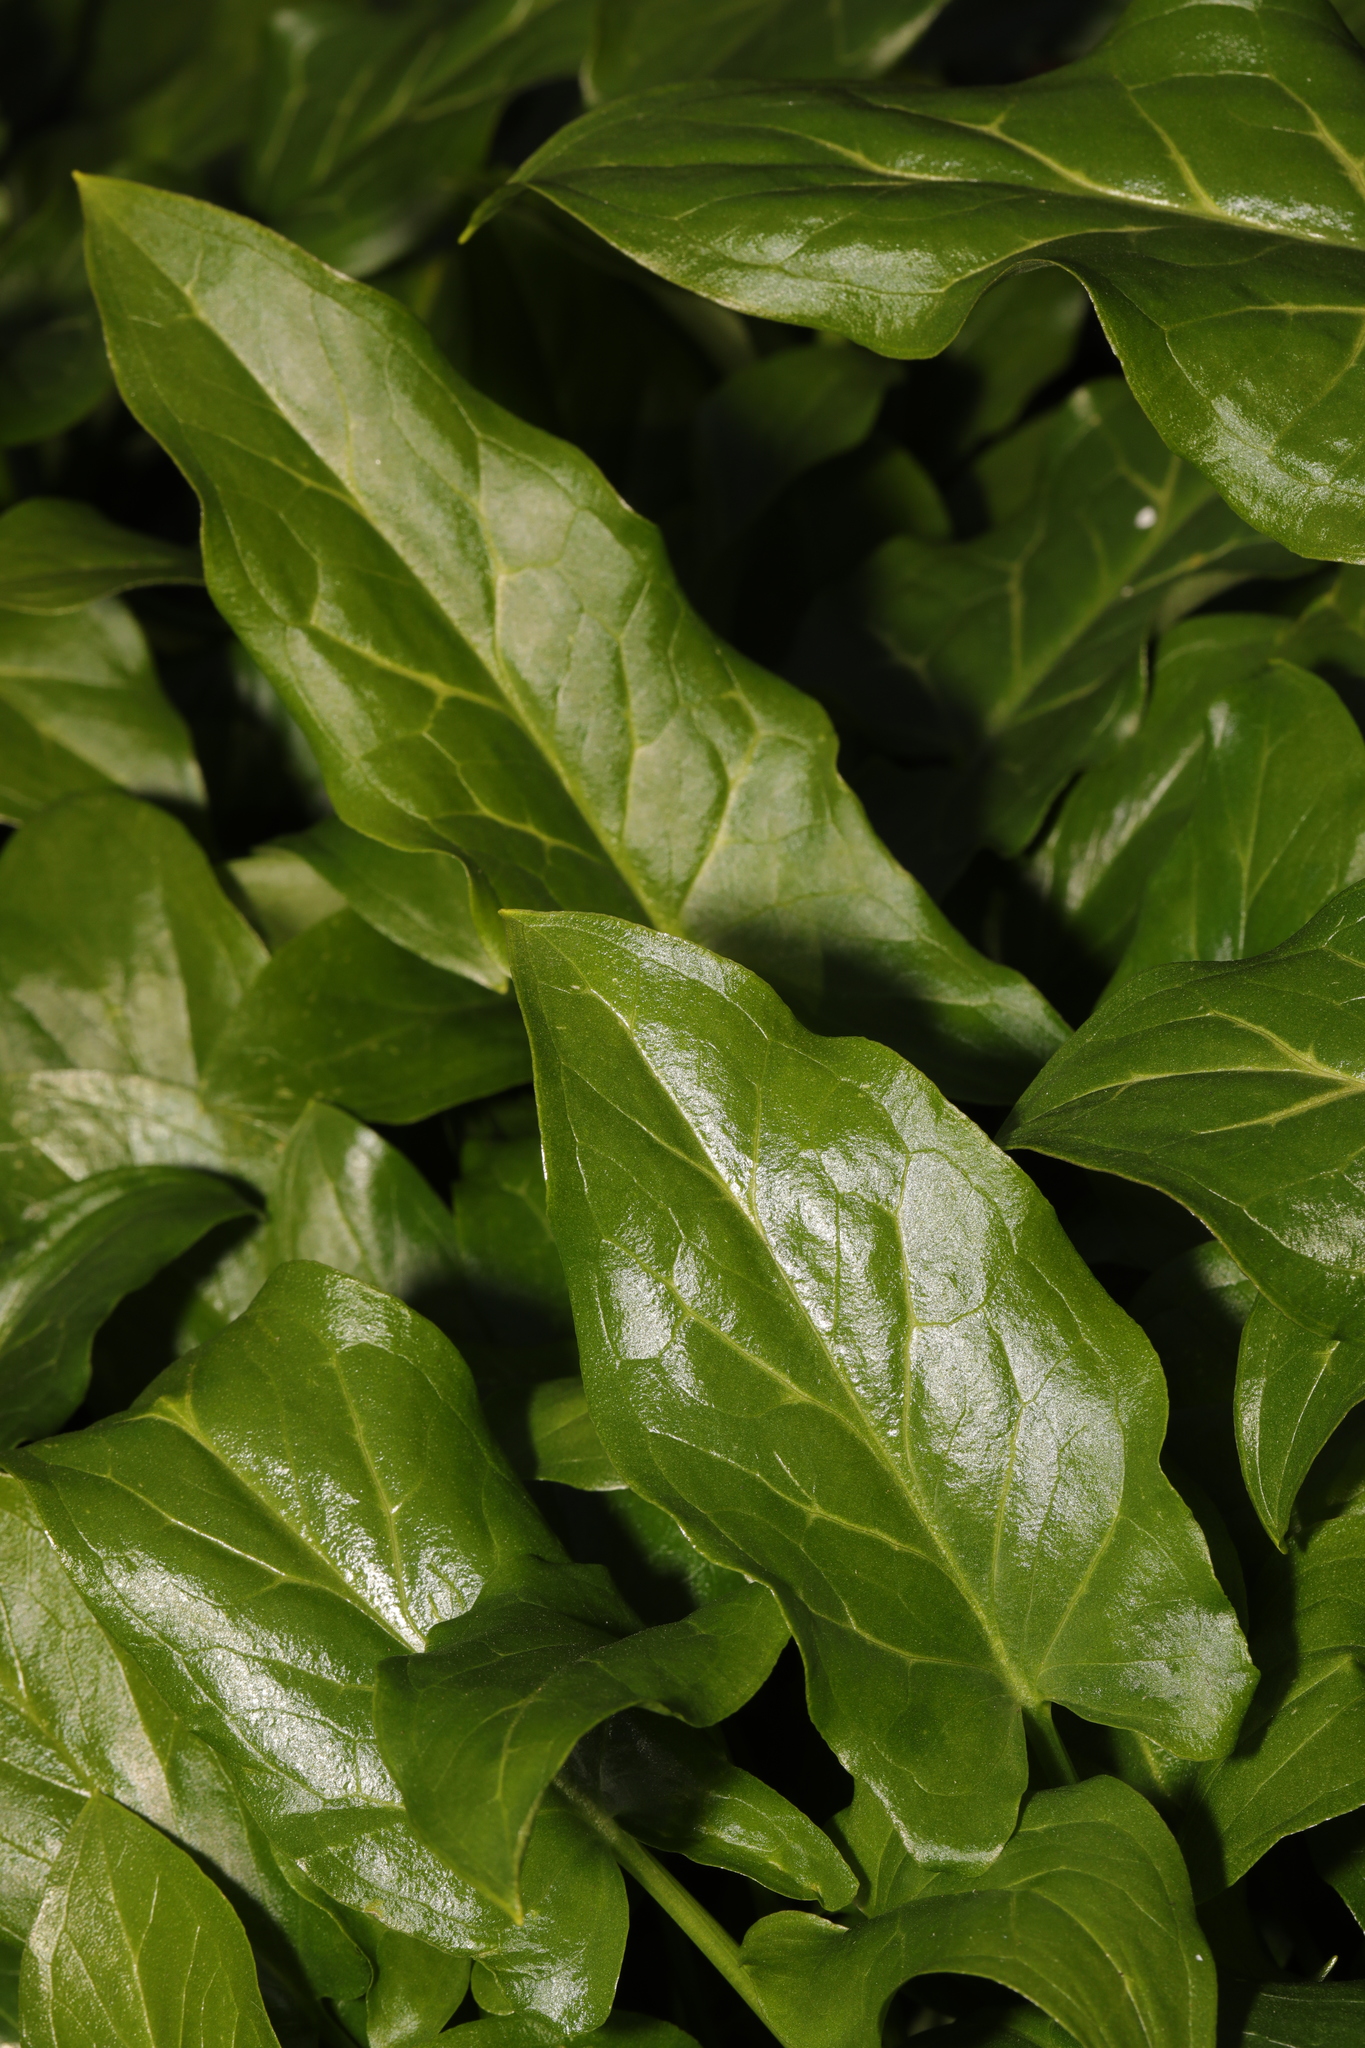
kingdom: Plantae
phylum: Tracheophyta
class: Liliopsida
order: Alismatales
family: Araceae
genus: Arum
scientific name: Arum maculatum
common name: Lords-and-ladies
